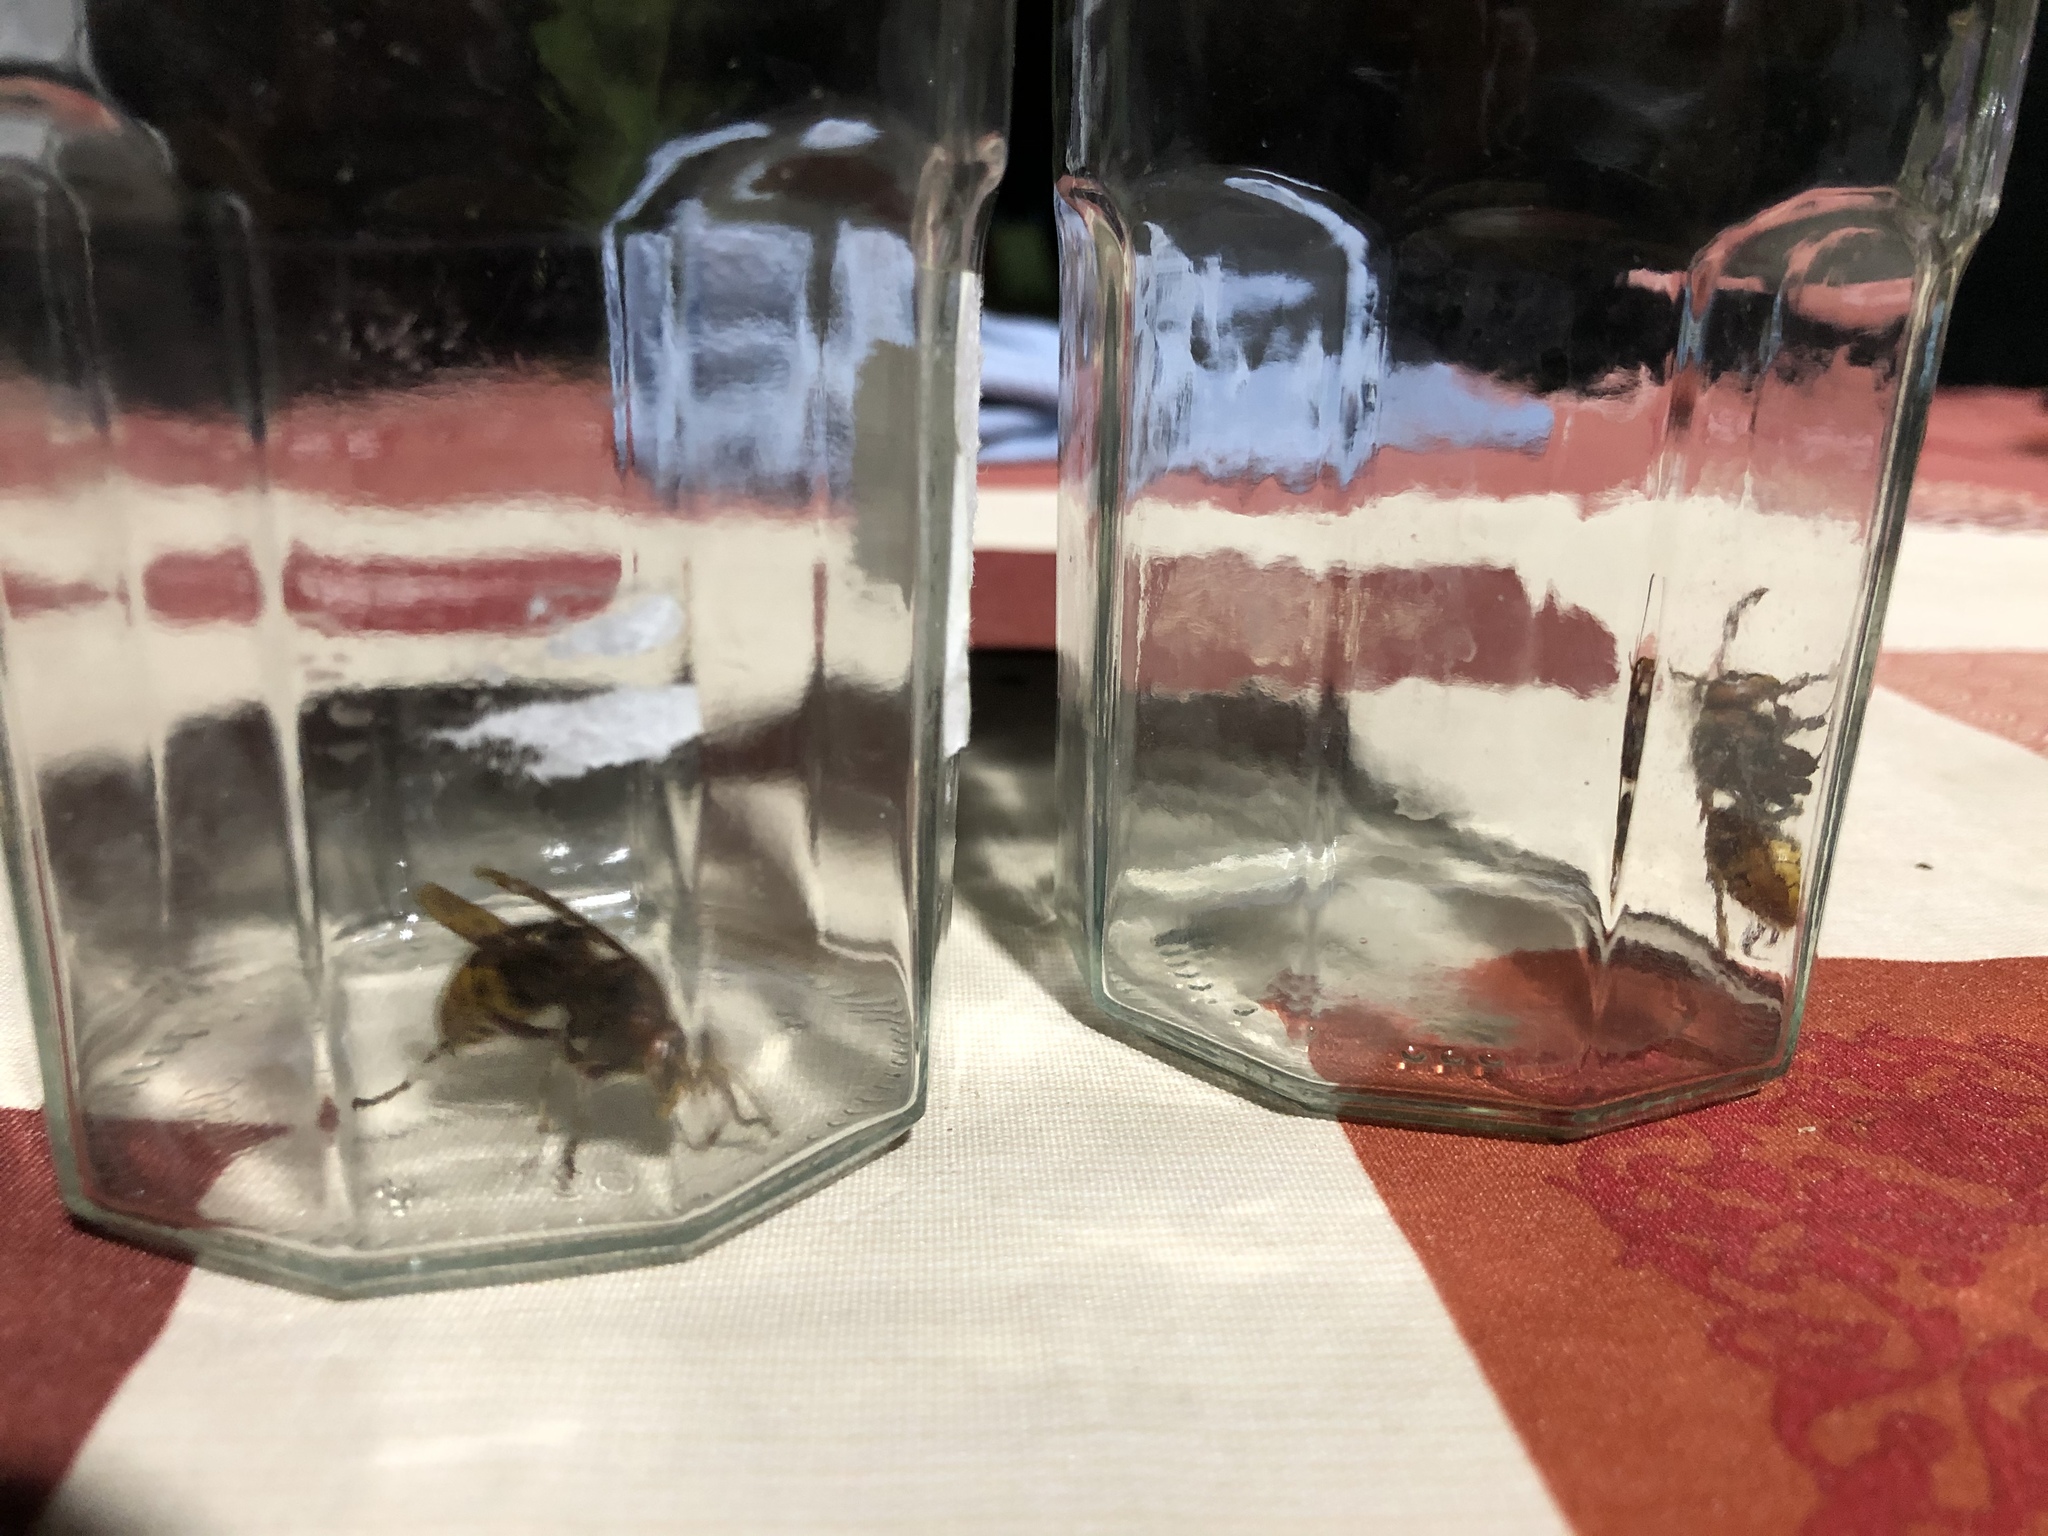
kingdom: Animalia
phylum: Arthropoda
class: Insecta
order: Hymenoptera
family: Vespidae
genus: Vespa
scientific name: Vespa crabro
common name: Hornet
